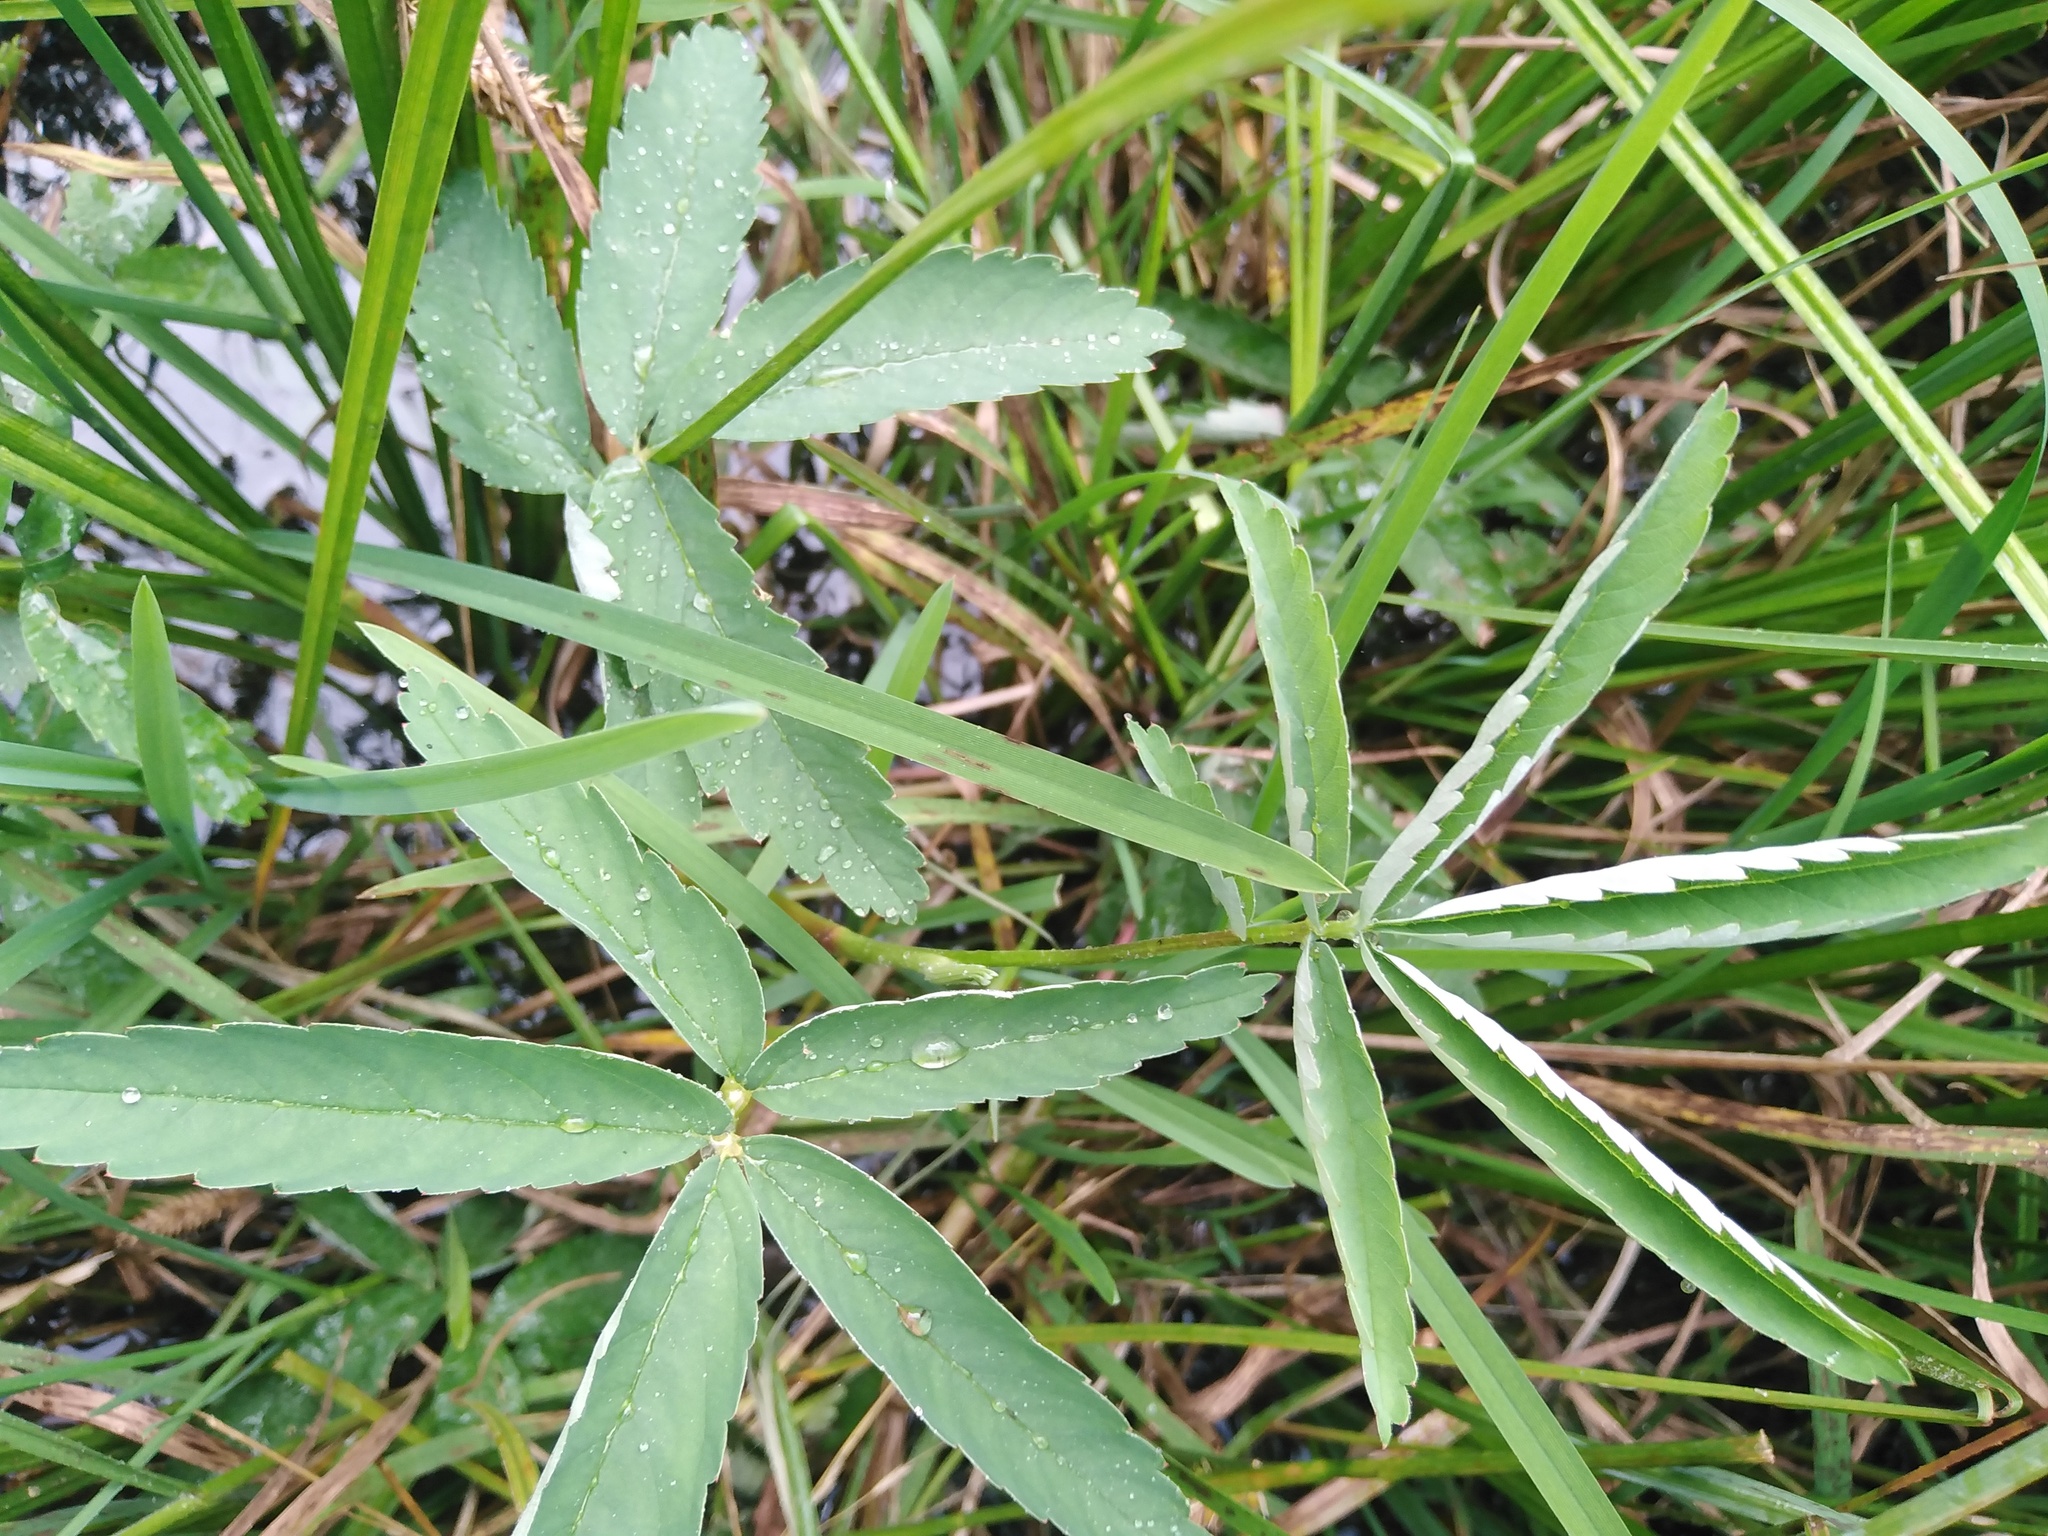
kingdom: Plantae
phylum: Tracheophyta
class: Magnoliopsida
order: Rosales
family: Rosaceae
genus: Comarum
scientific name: Comarum palustre
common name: Marsh cinquefoil
